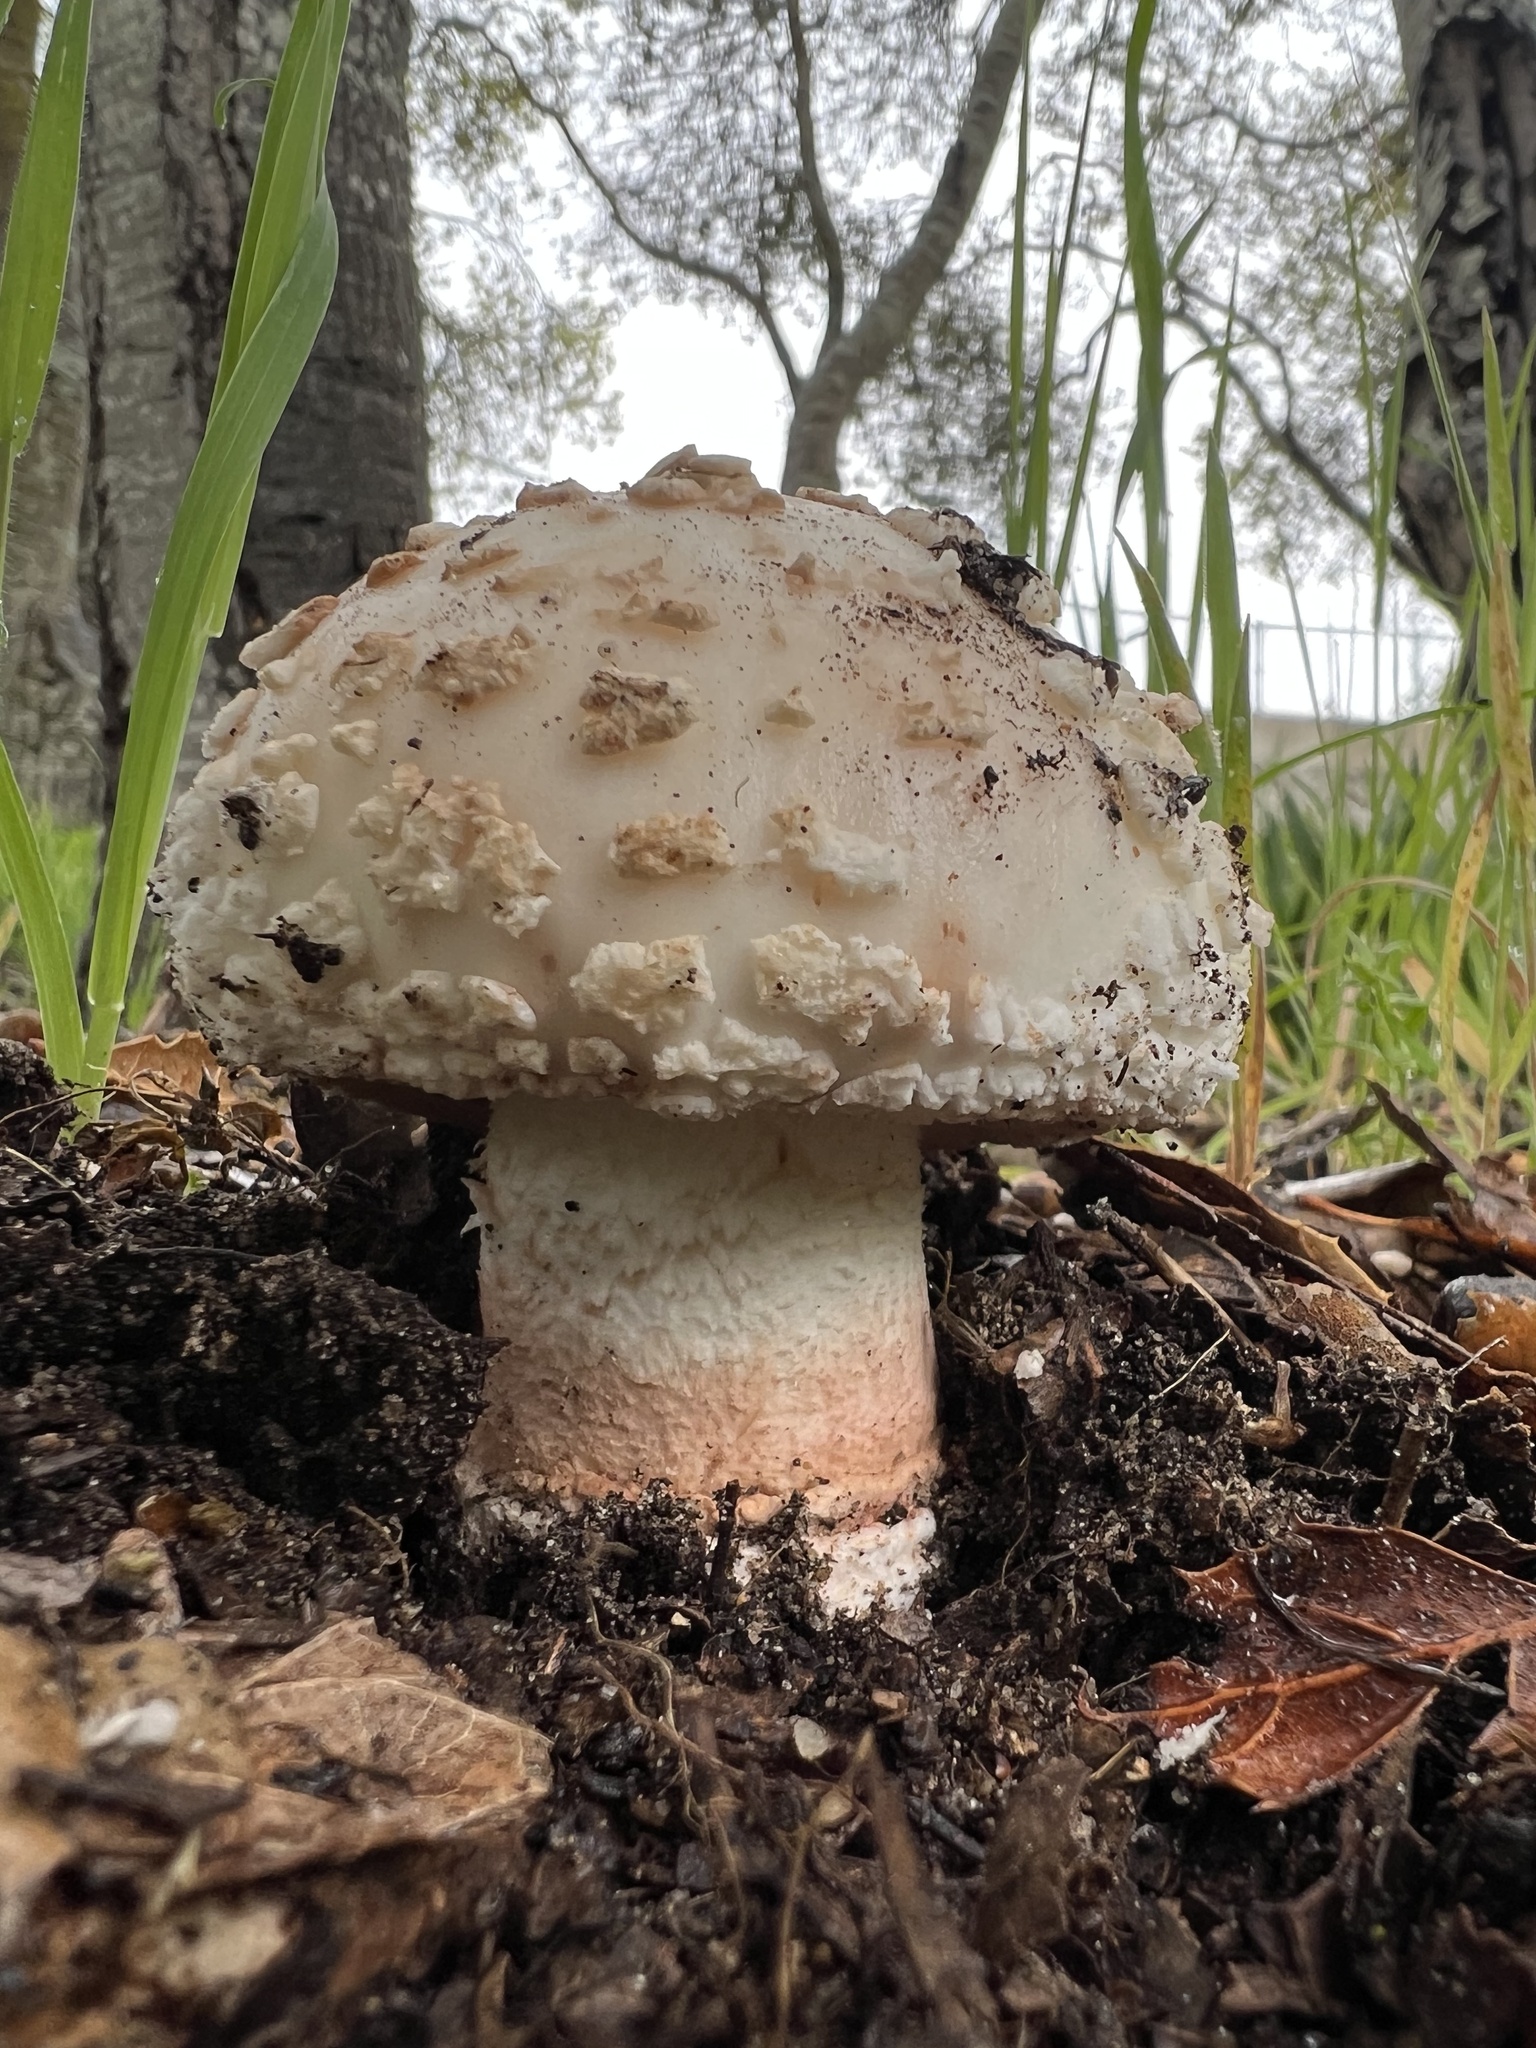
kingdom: Fungi
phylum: Basidiomycota
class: Agaricomycetes
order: Agaricales
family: Amanitaceae
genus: Amanita
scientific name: Amanita novinupta
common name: Blushing bride
